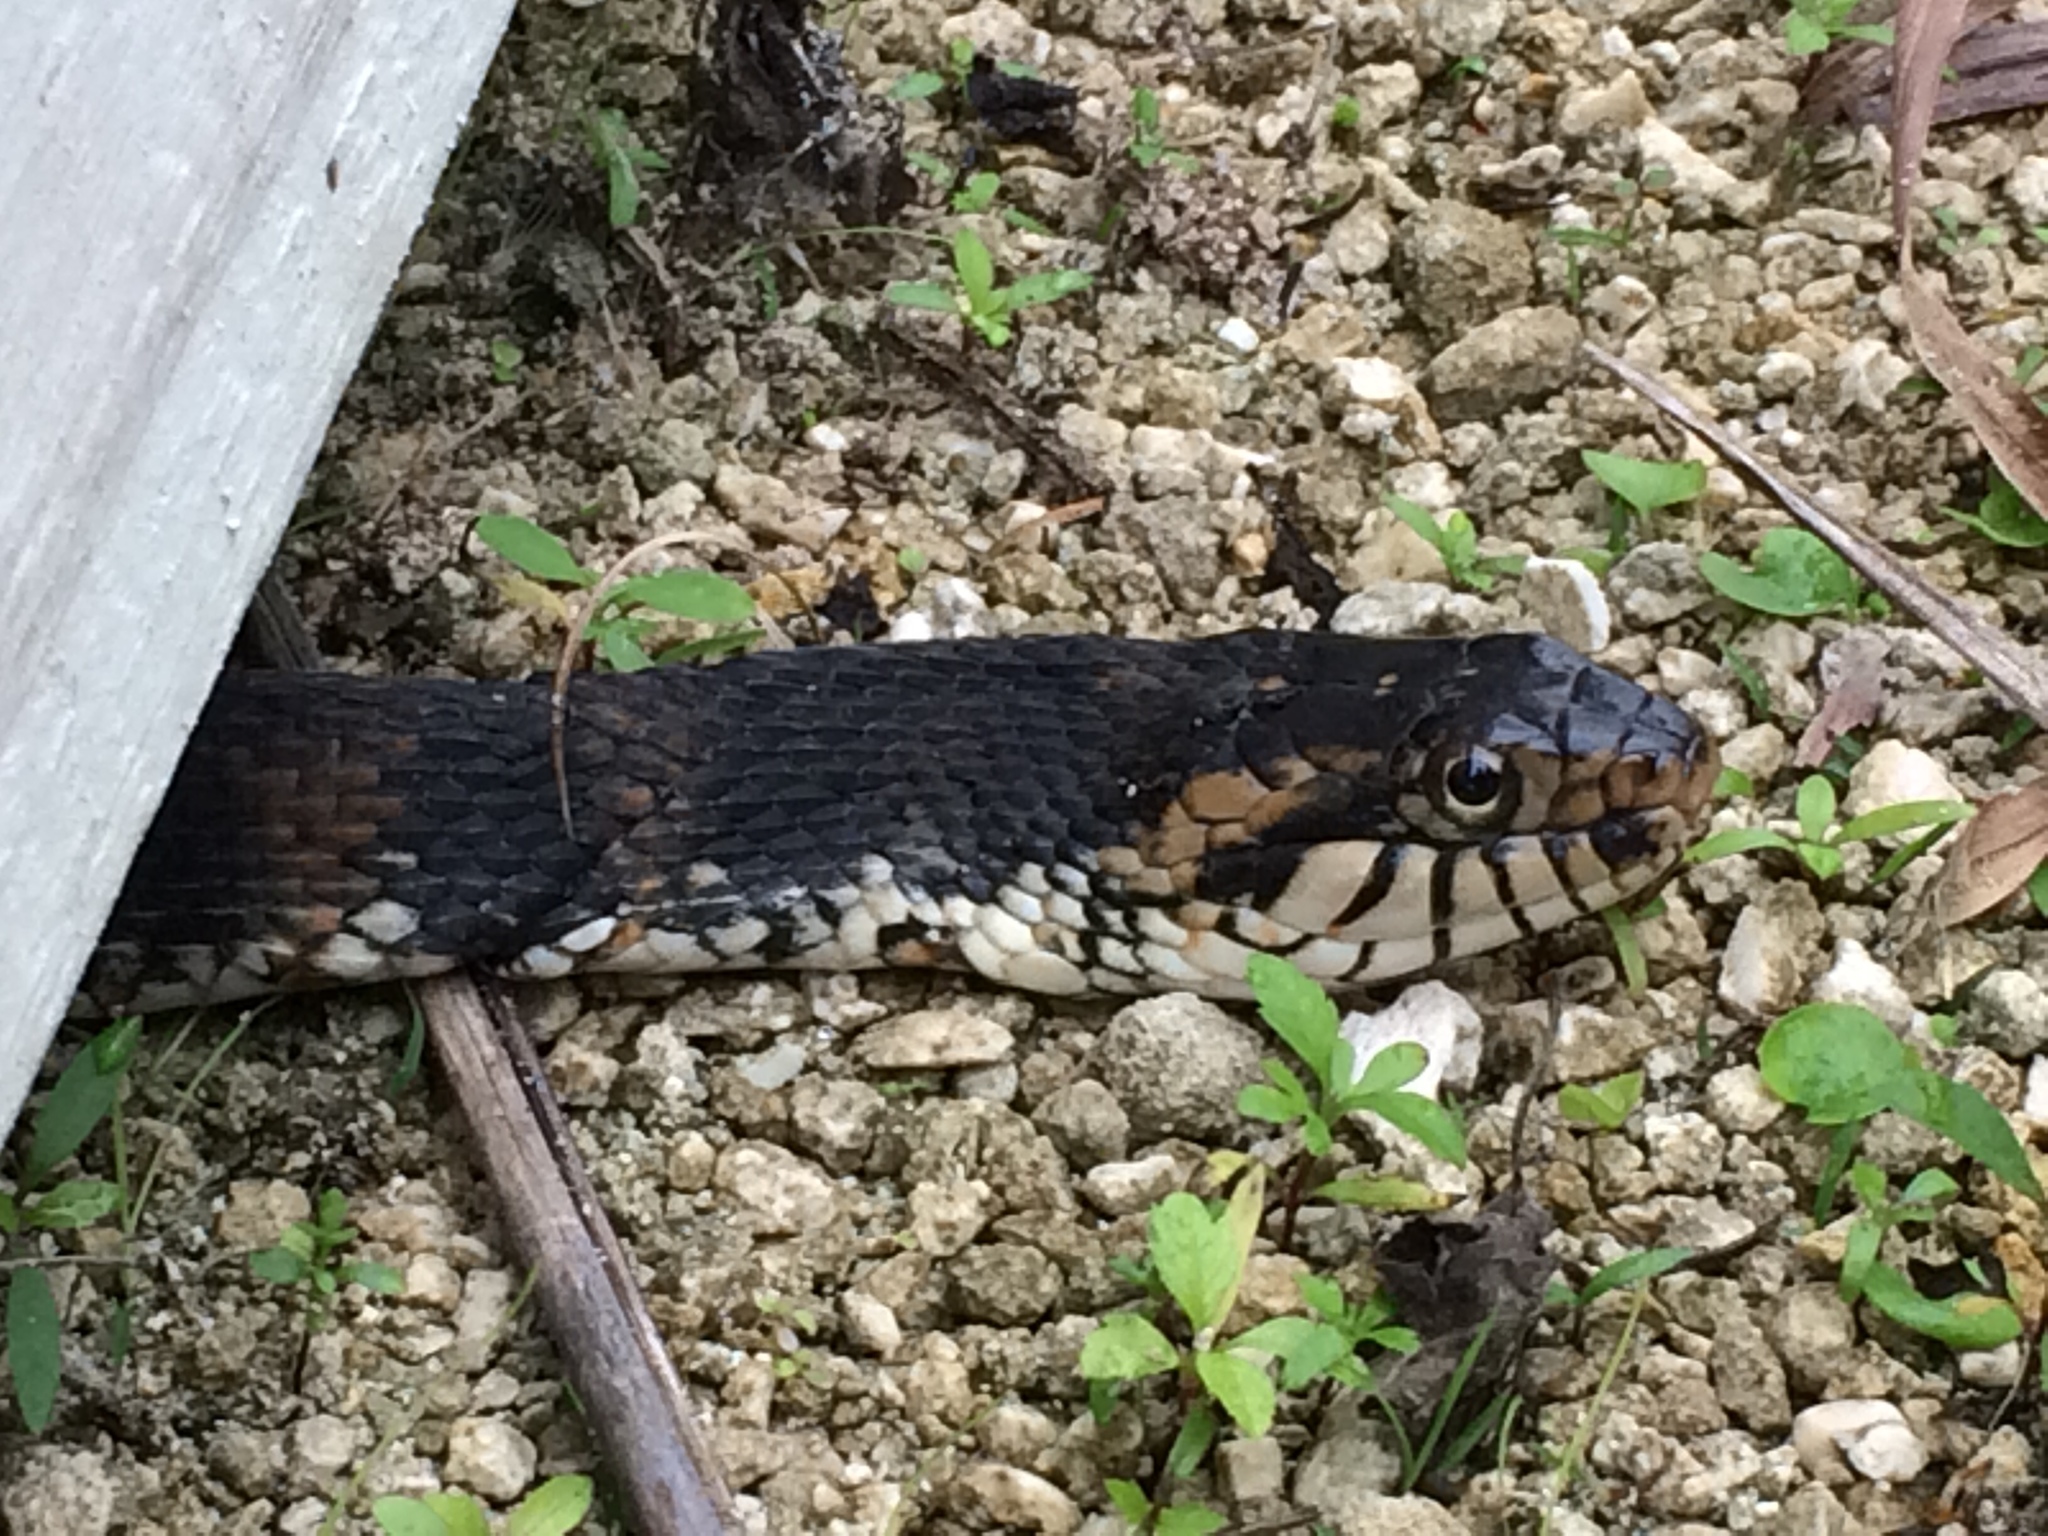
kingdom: Animalia
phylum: Chordata
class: Squamata
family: Colubridae
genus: Nerodia
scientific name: Nerodia fasciata
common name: Southern water snake
